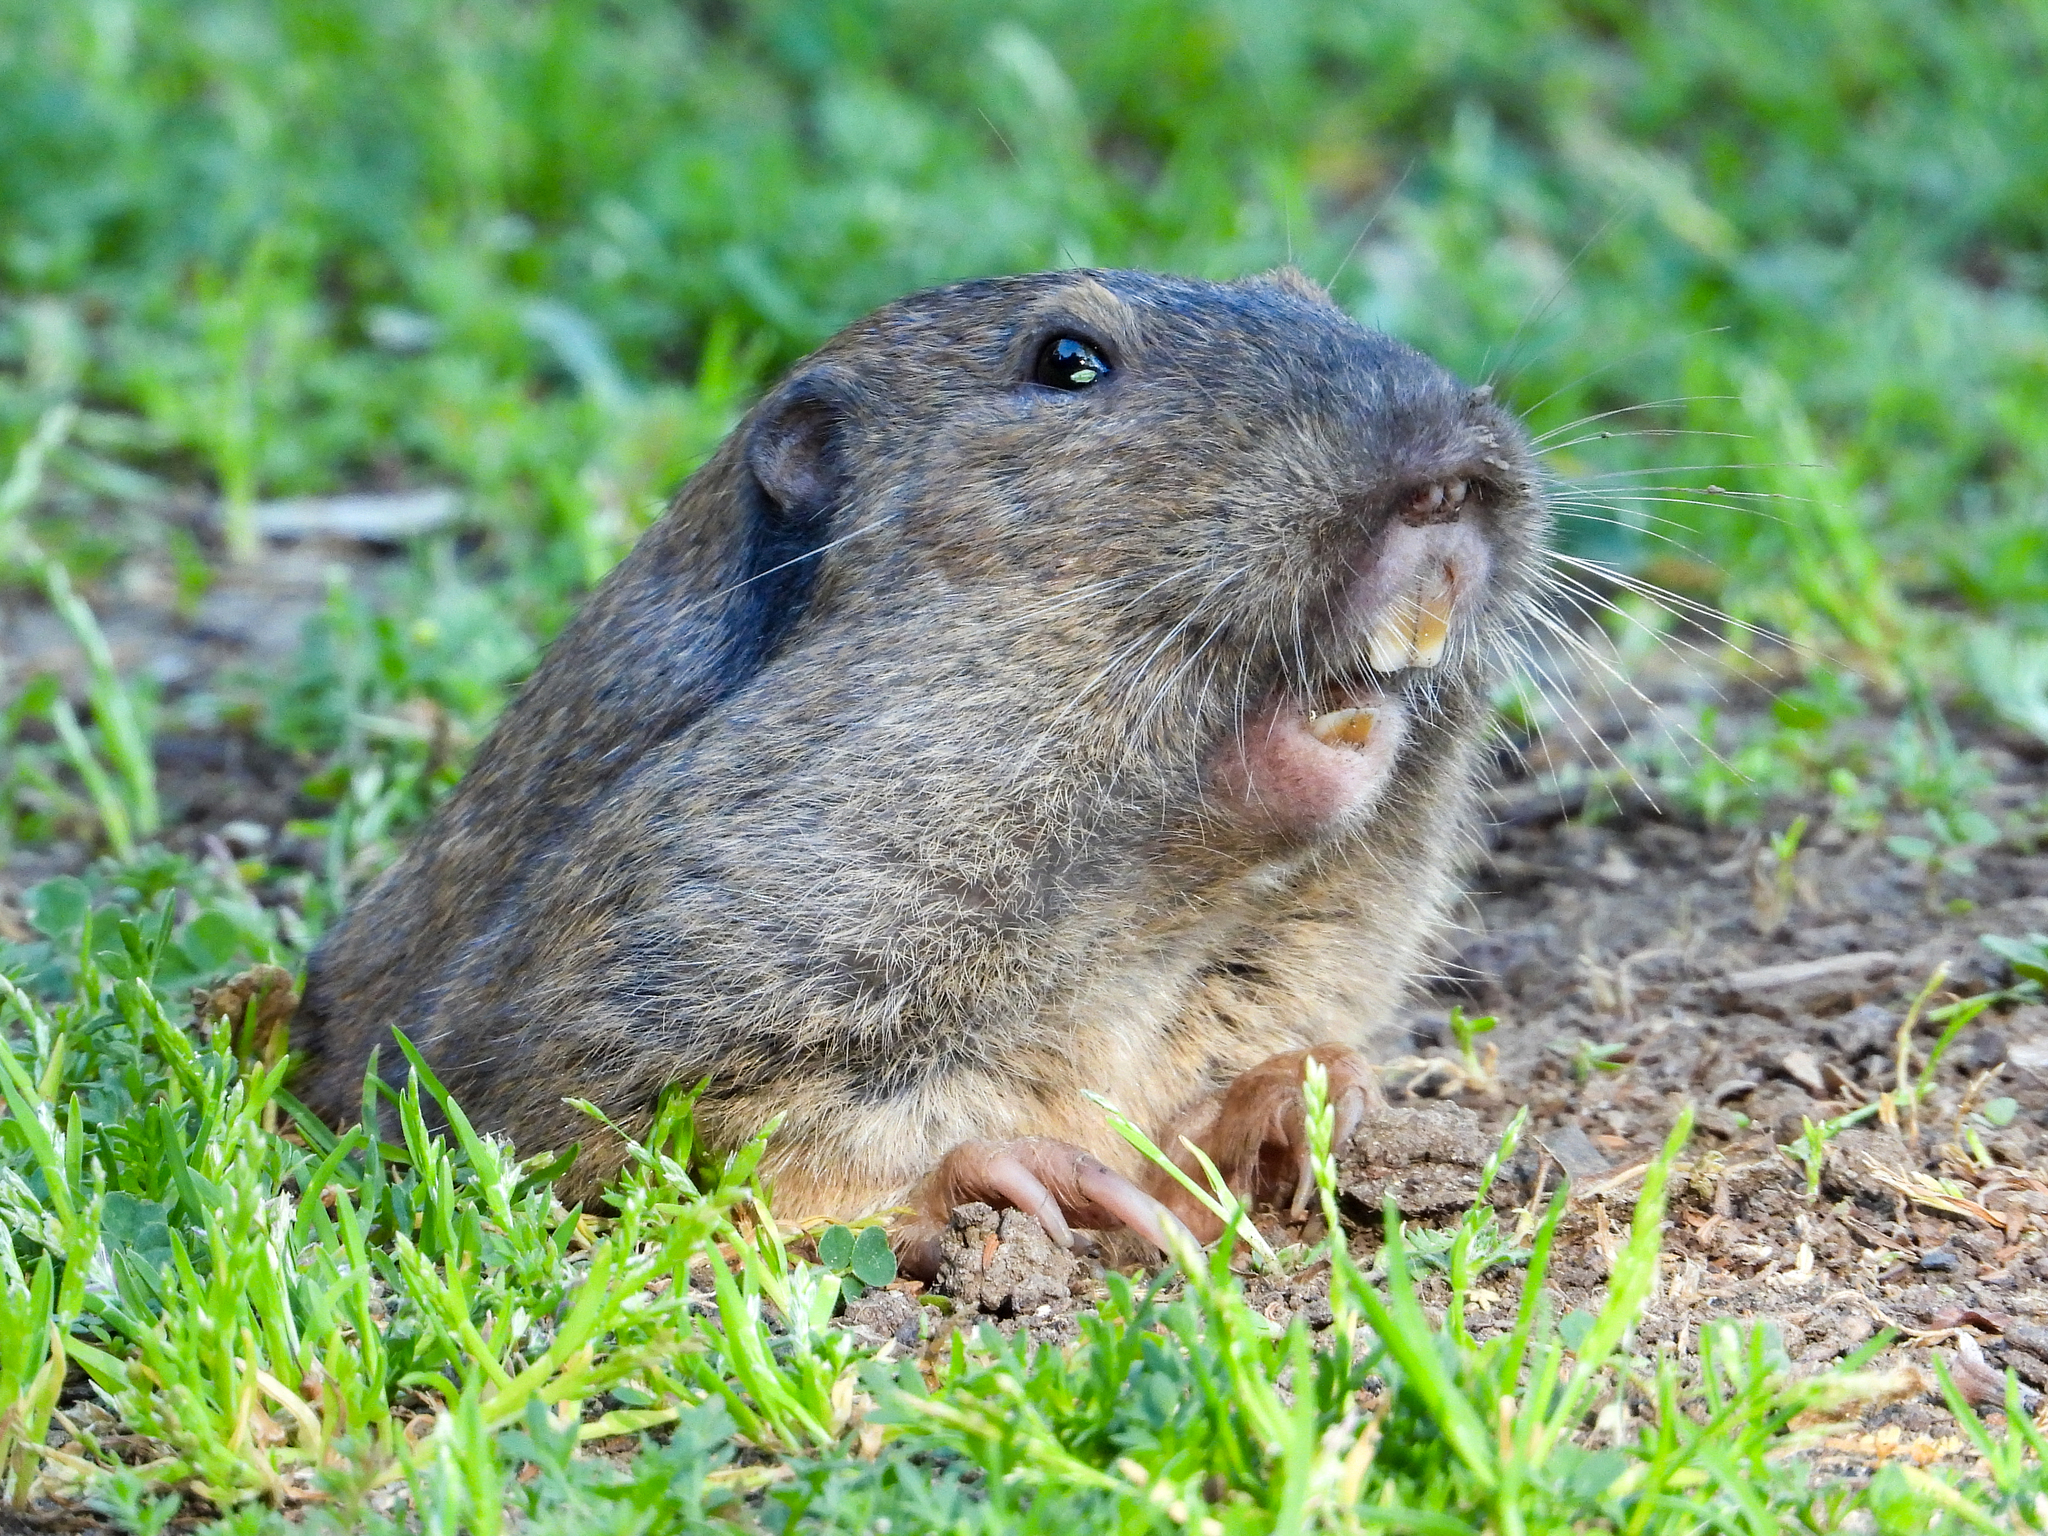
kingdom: Animalia
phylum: Chordata
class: Mammalia
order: Rodentia
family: Geomyidae
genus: Thomomys
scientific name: Thomomys bottae
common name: Botta's pocket gopher
